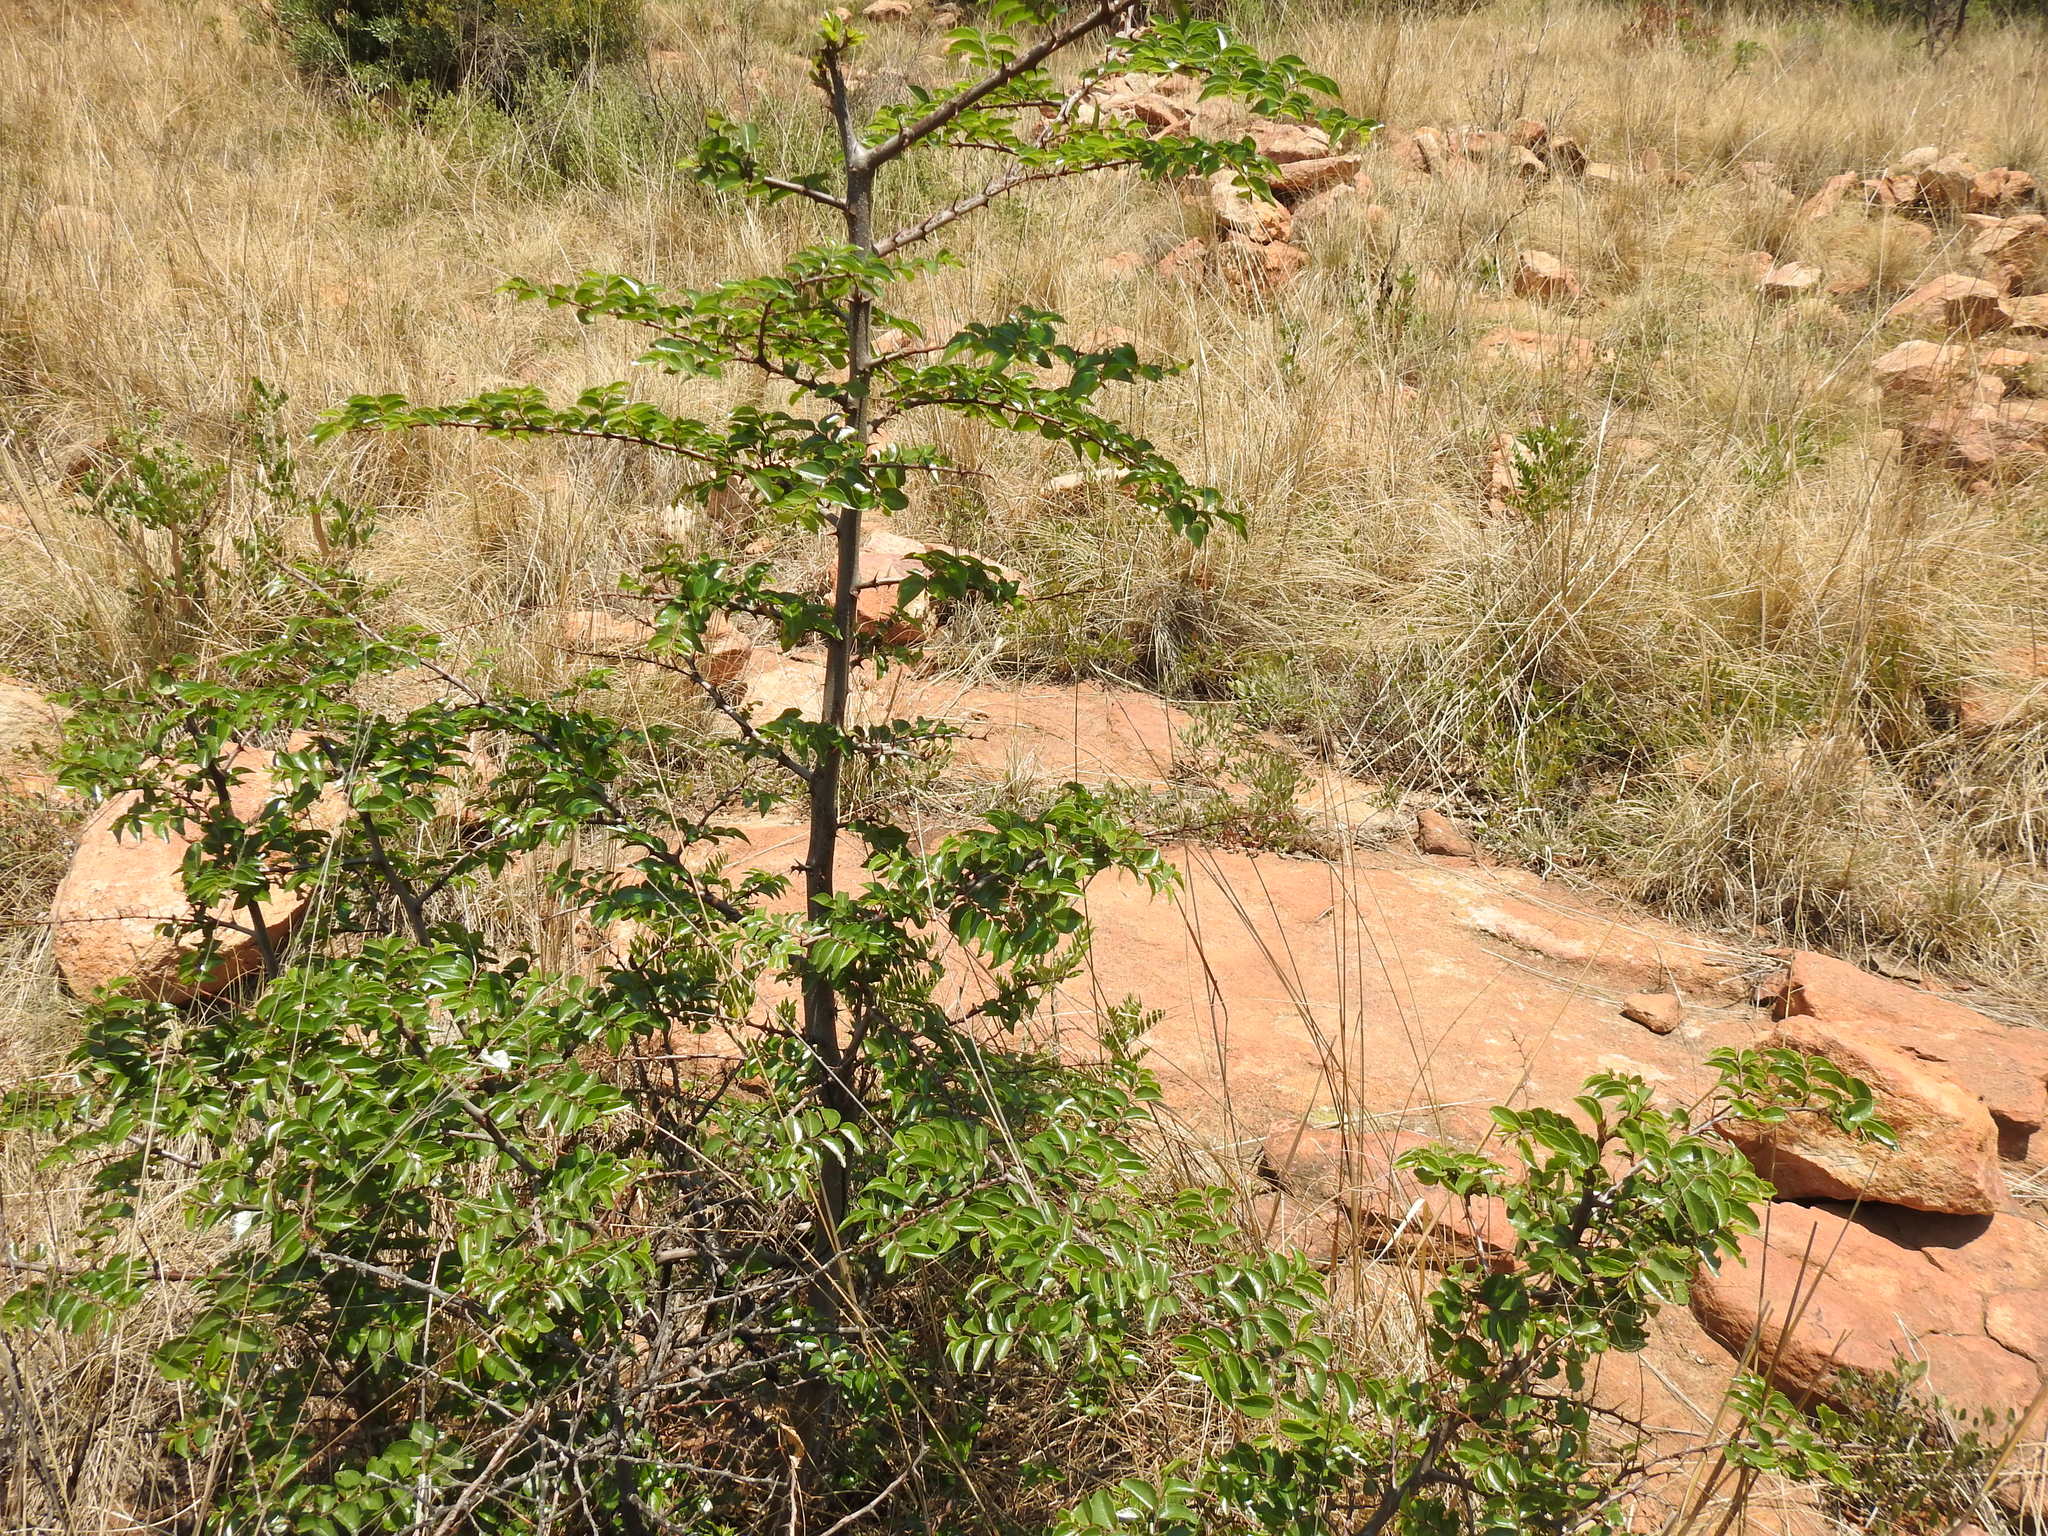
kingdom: Plantae
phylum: Tracheophyta
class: Magnoliopsida
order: Rosales
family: Rhamnaceae
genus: Ziziphus
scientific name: Ziziphus mucronata
